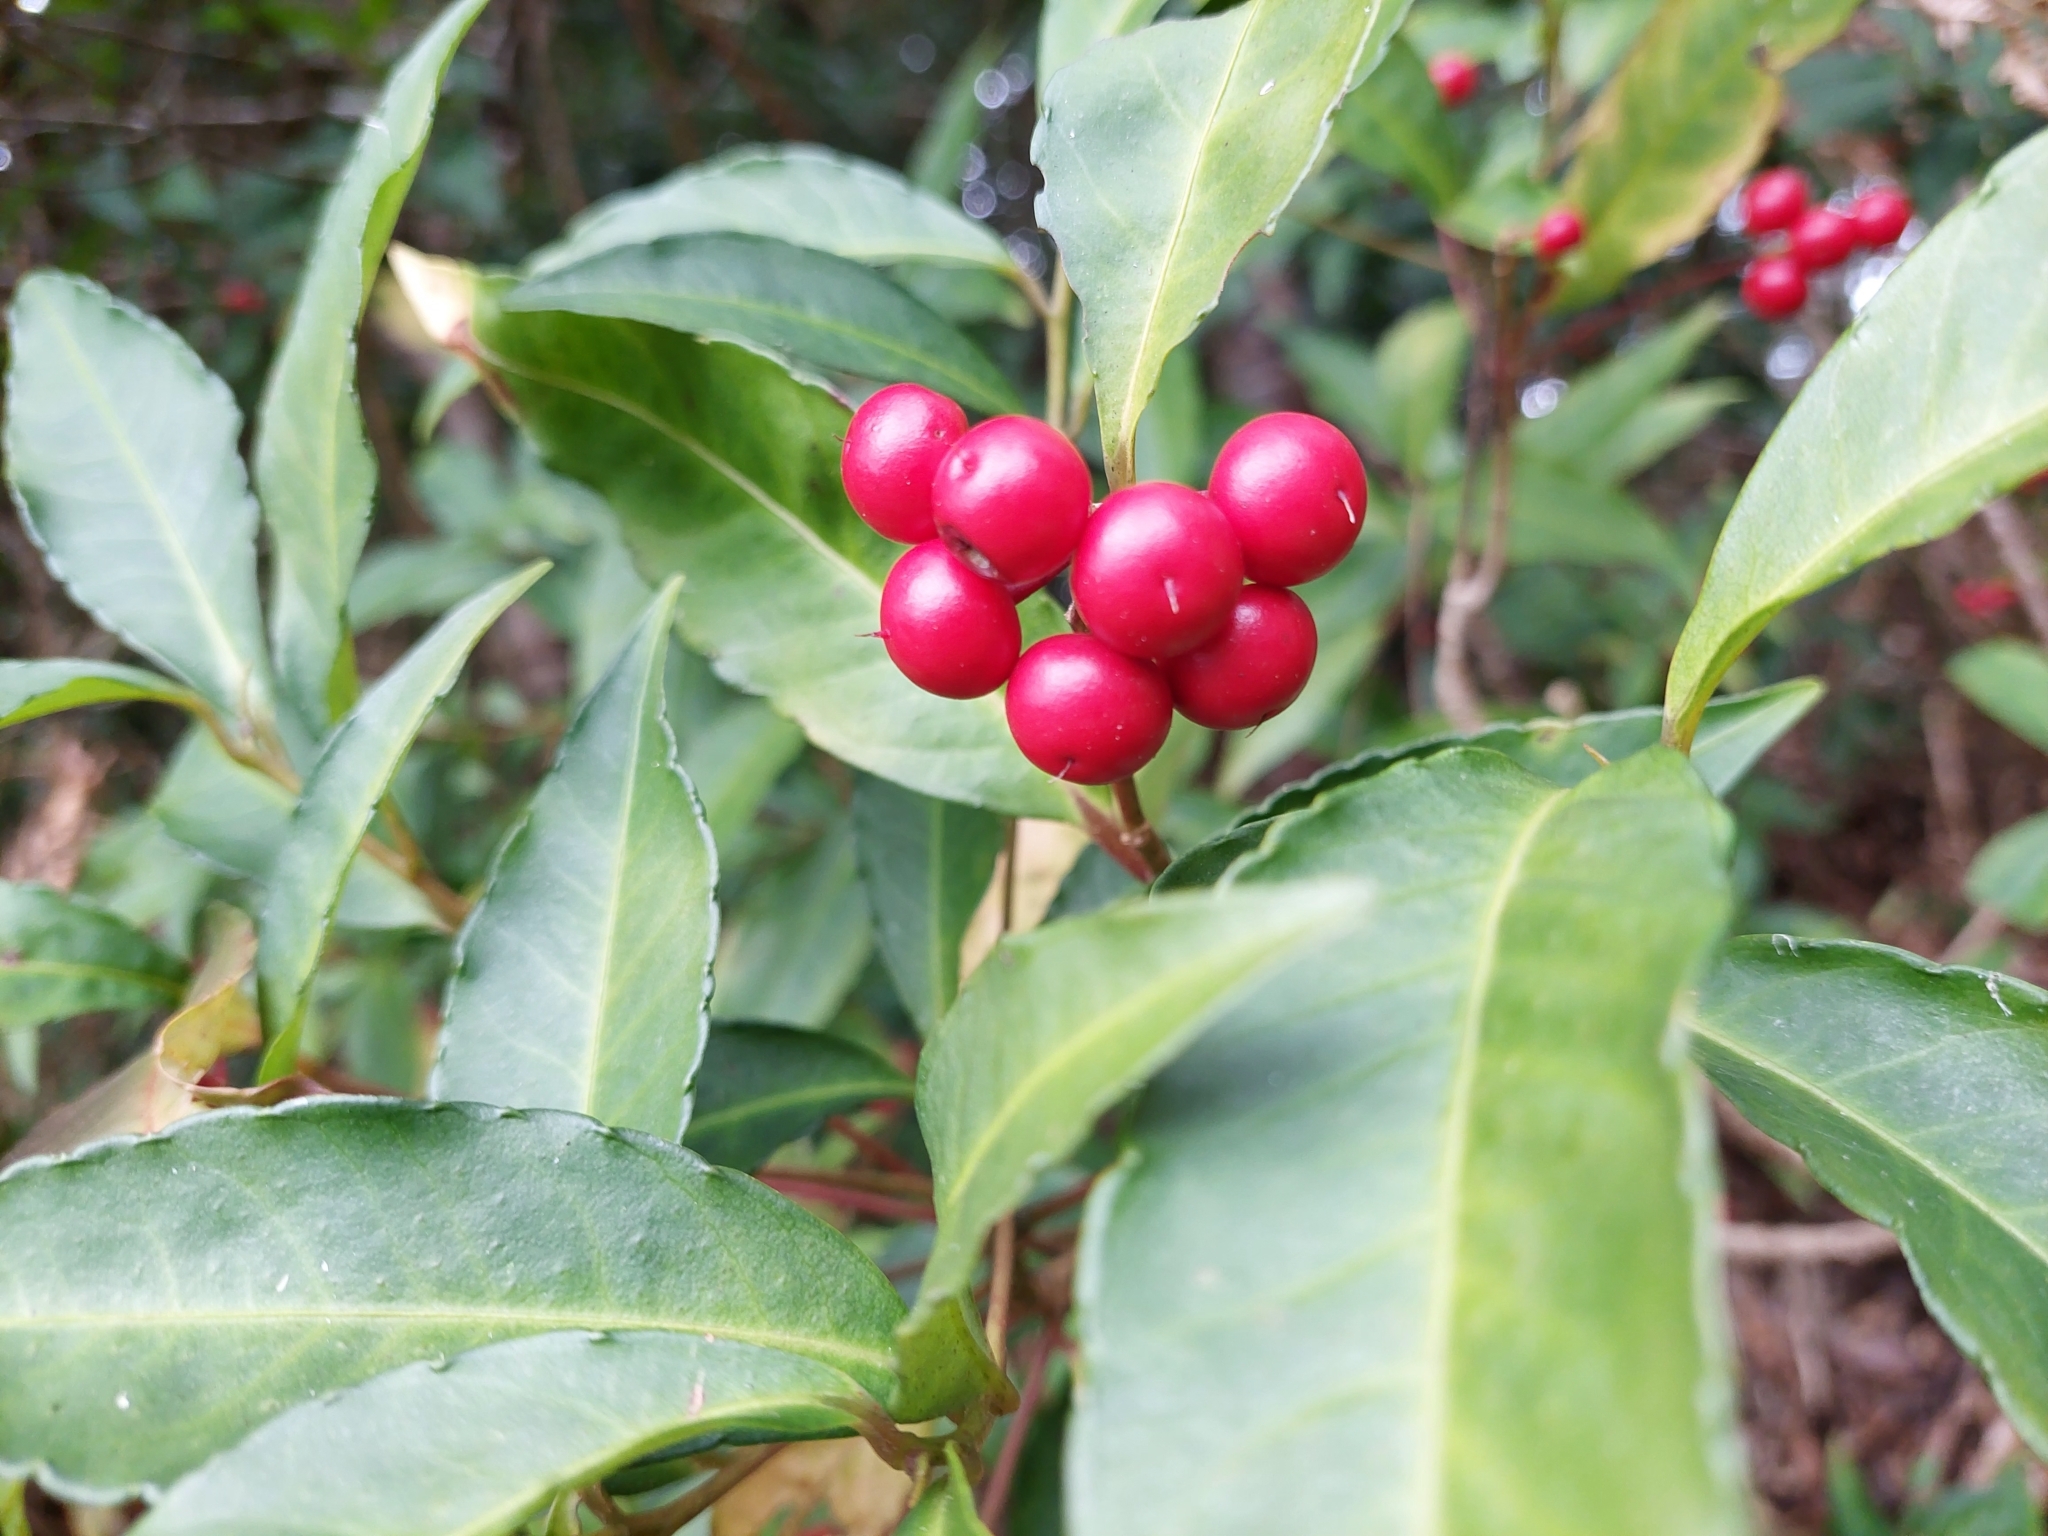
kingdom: Plantae
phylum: Tracheophyta
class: Magnoliopsida
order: Ericales
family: Primulaceae
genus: Ardisia
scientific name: Ardisia crenata
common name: Hen's eyes
